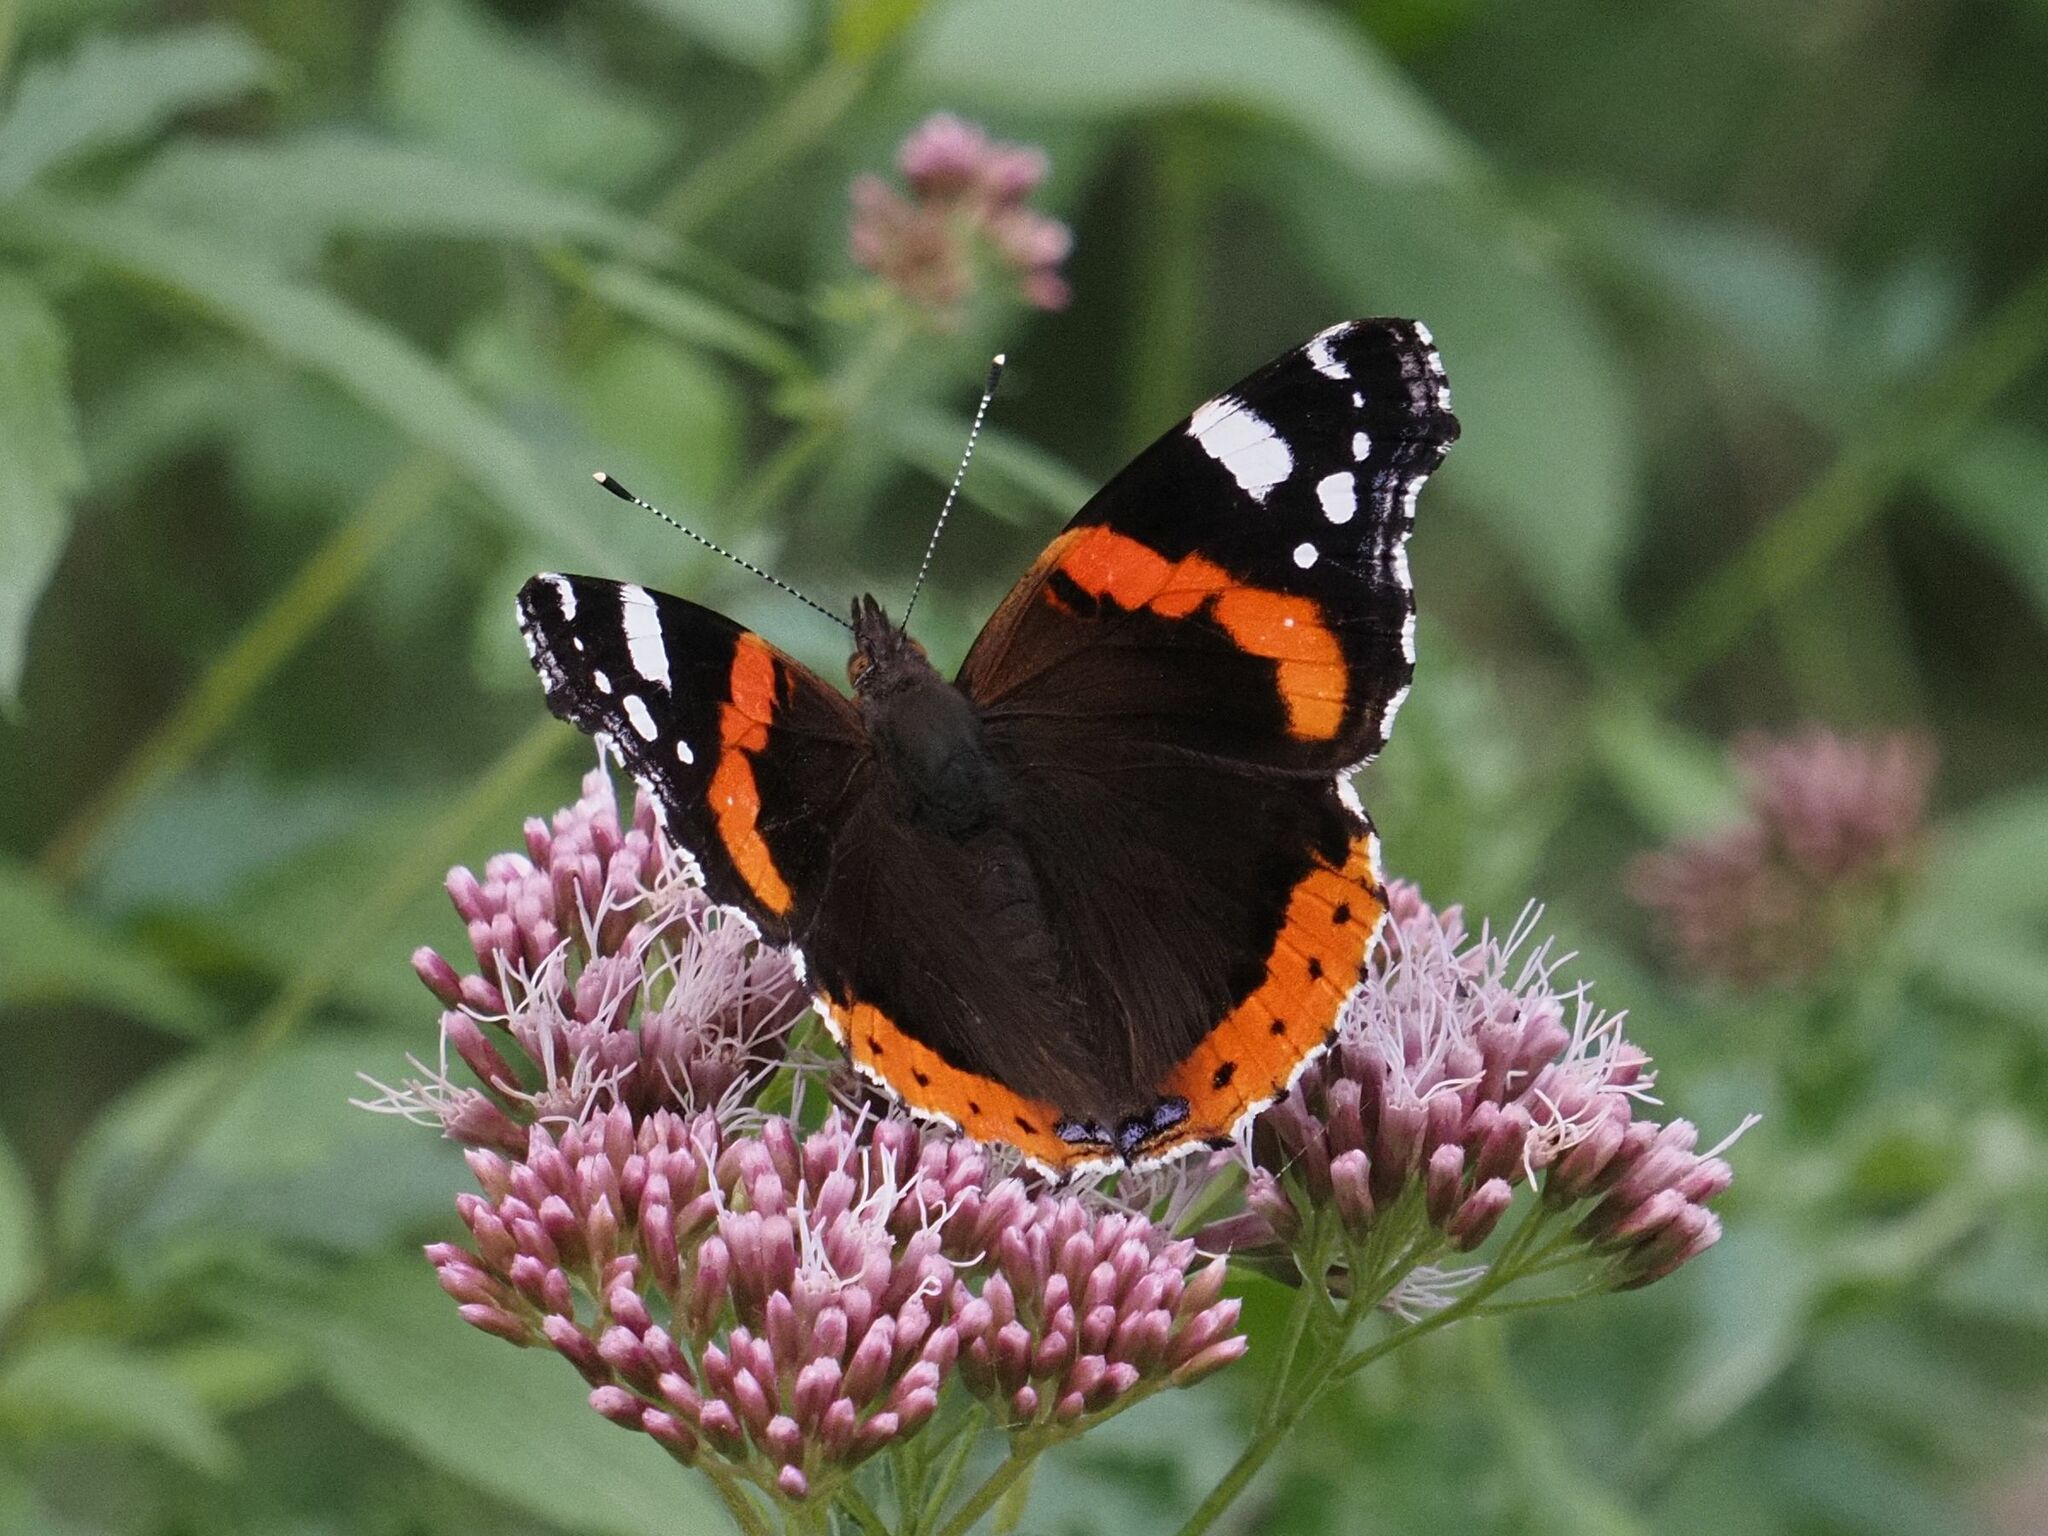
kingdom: Animalia
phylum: Arthropoda
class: Insecta
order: Lepidoptera
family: Nymphalidae
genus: Vanessa
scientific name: Vanessa atalanta
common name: Red admiral
